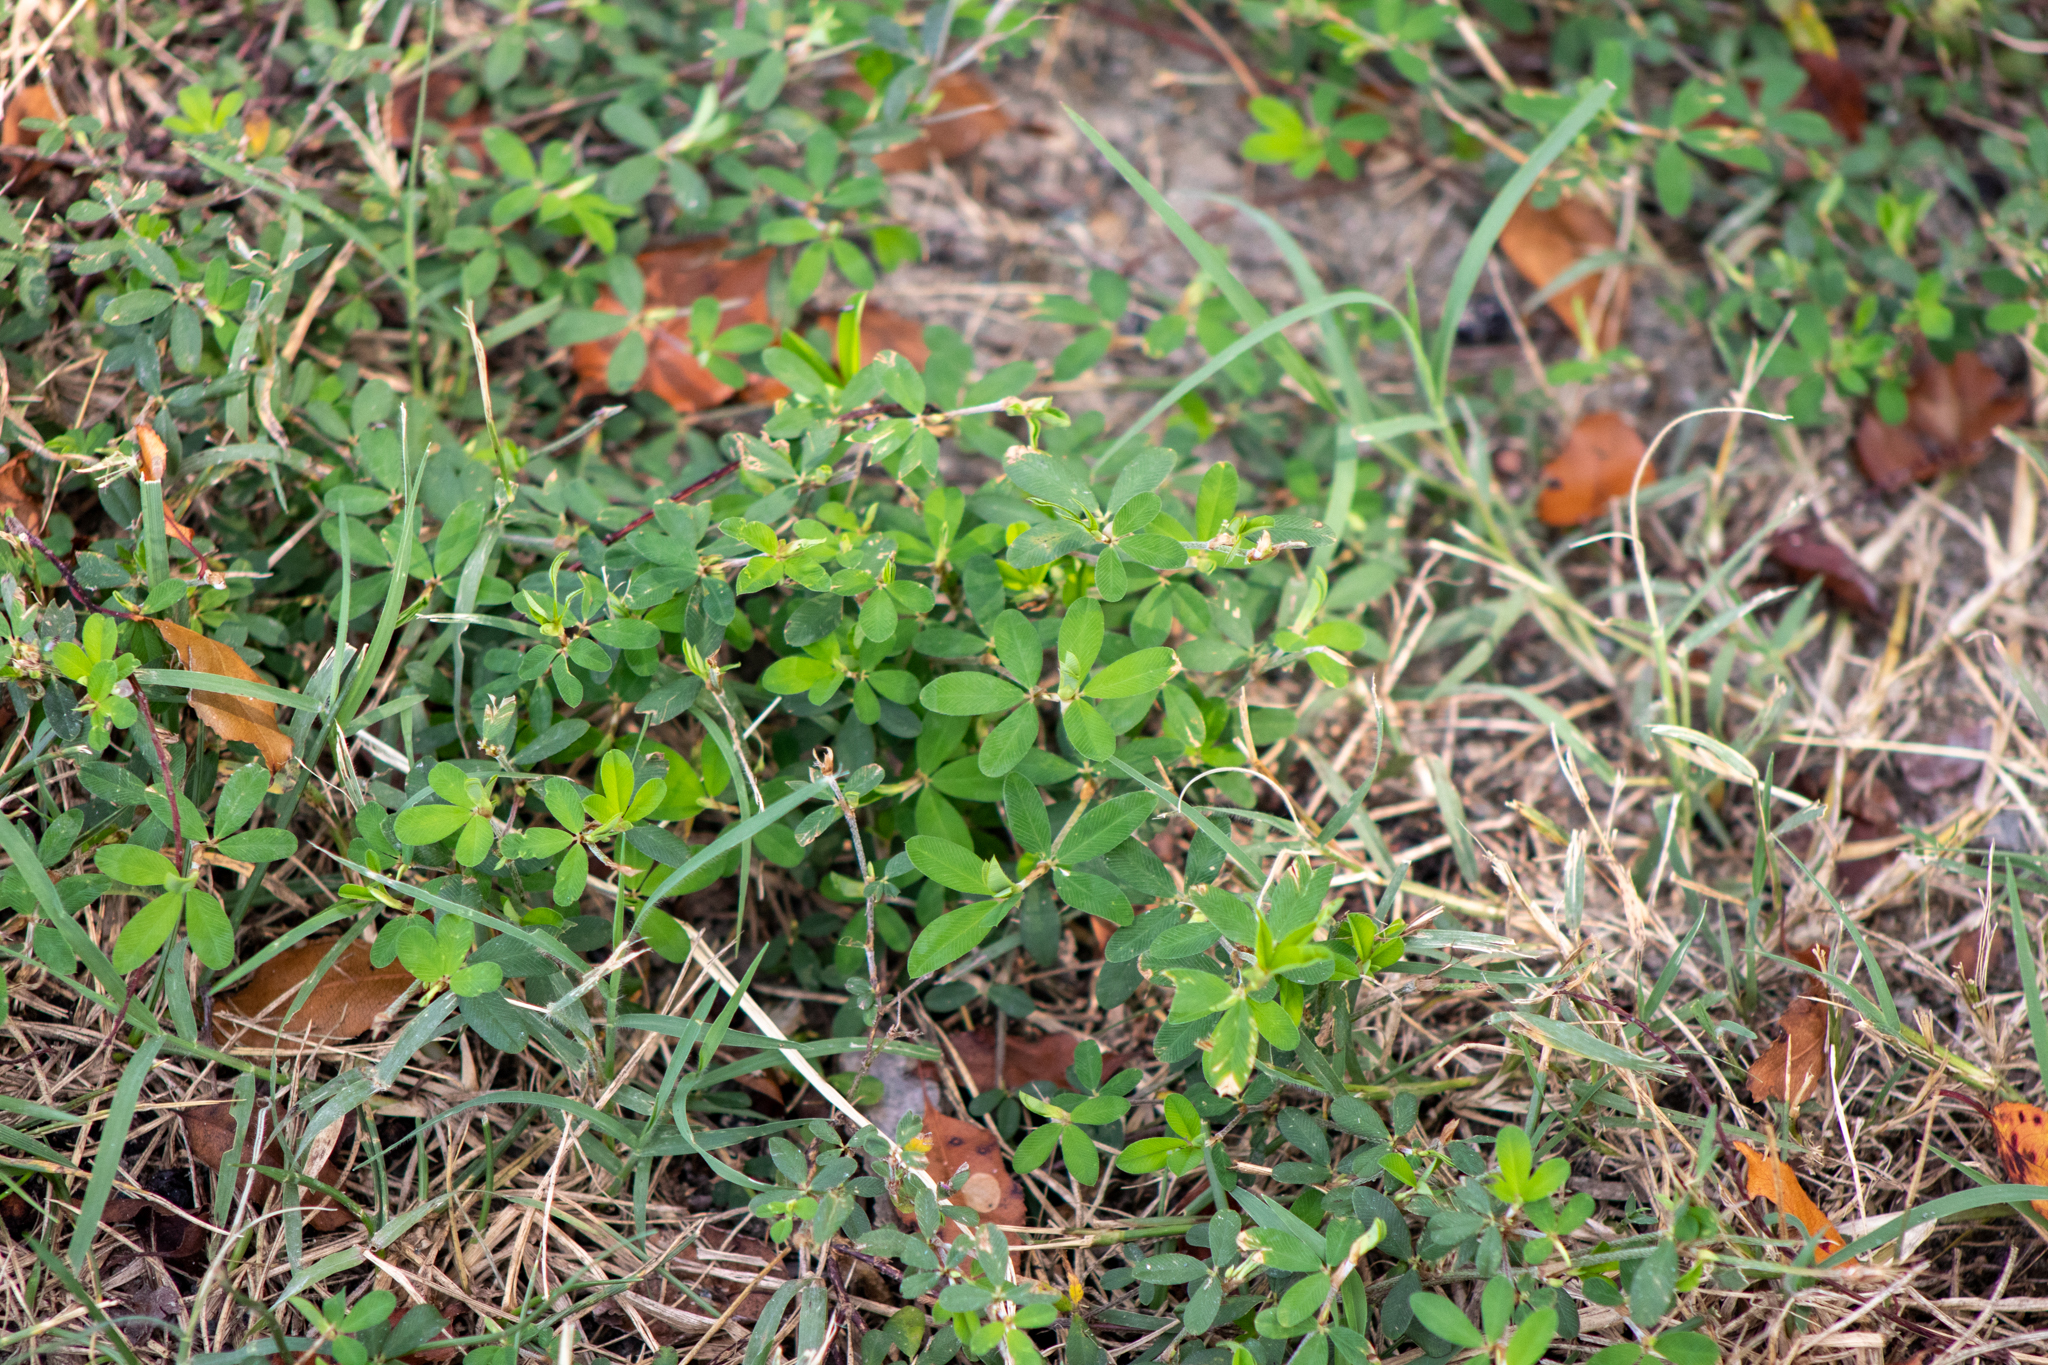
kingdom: Plantae
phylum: Tracheophyta
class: Magnoliopsida
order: Fabales
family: Fabaceae
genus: Kummerowia
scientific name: Kummerowia striata
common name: Japanese clover
